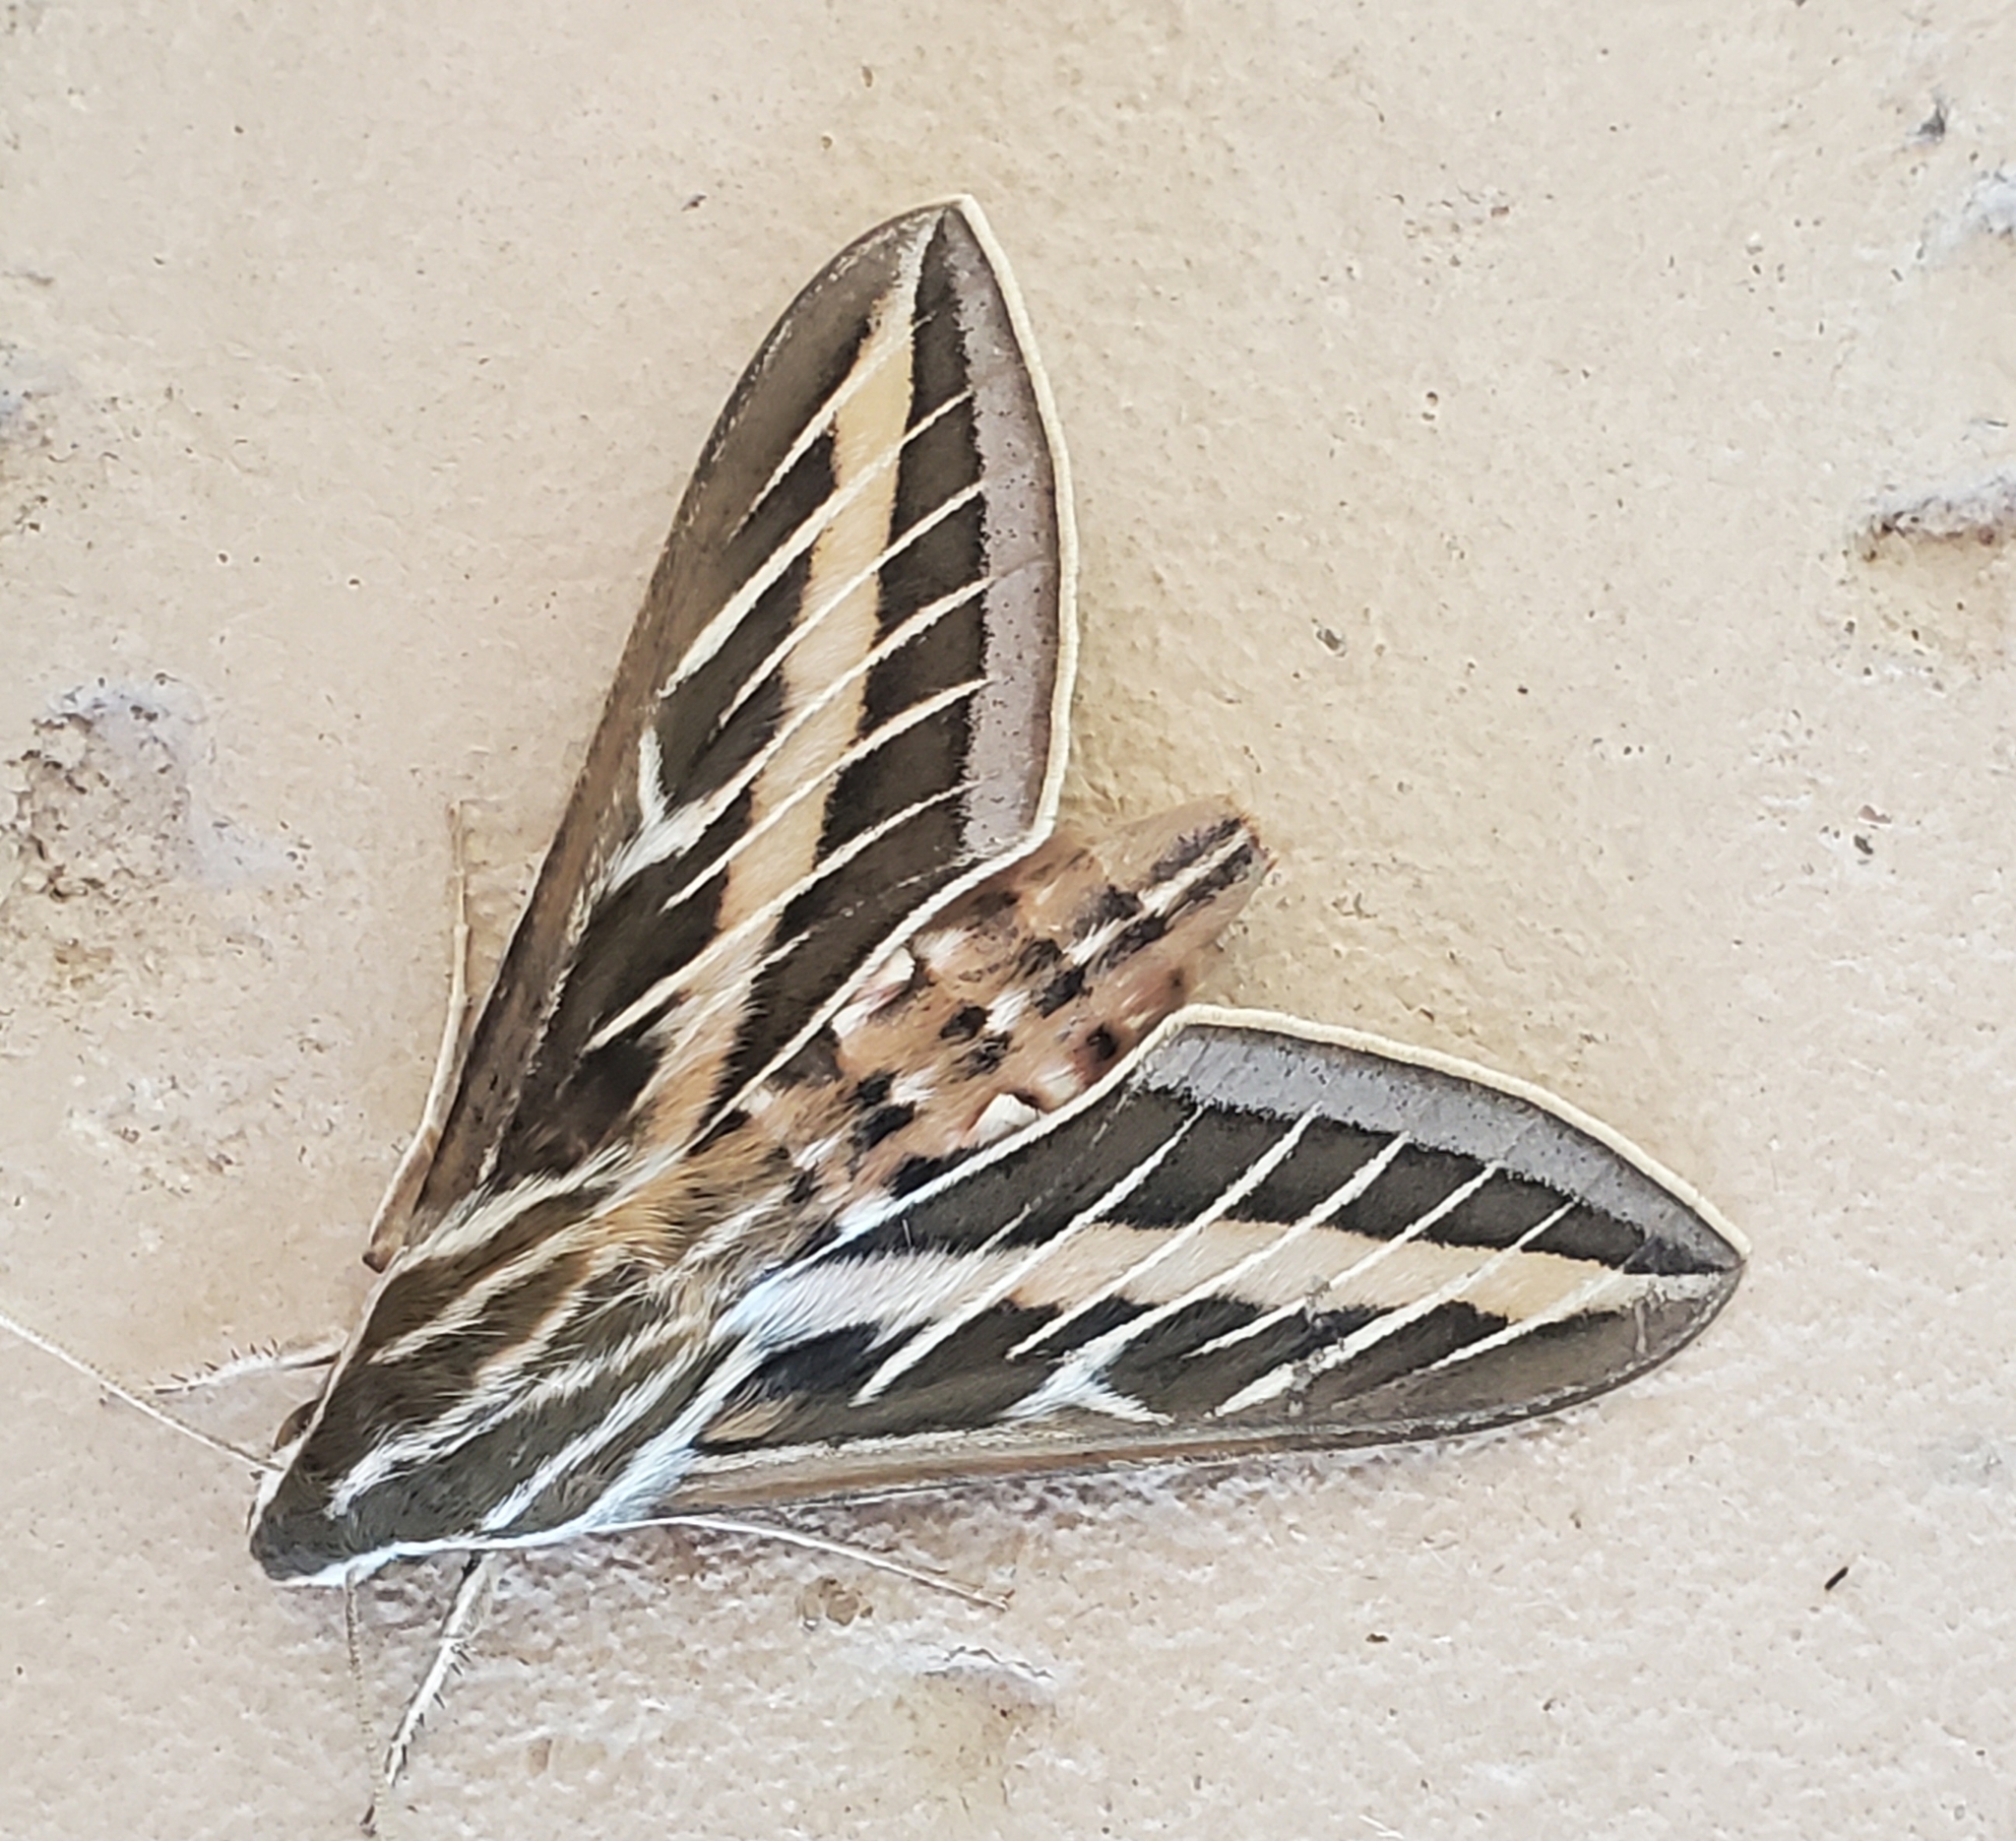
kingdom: Animalia
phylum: Arthropoda
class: Insecta
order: Lepidoptera
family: Sphingidae
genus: Hyles
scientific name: Hyles lineata
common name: White-lined sphinx
